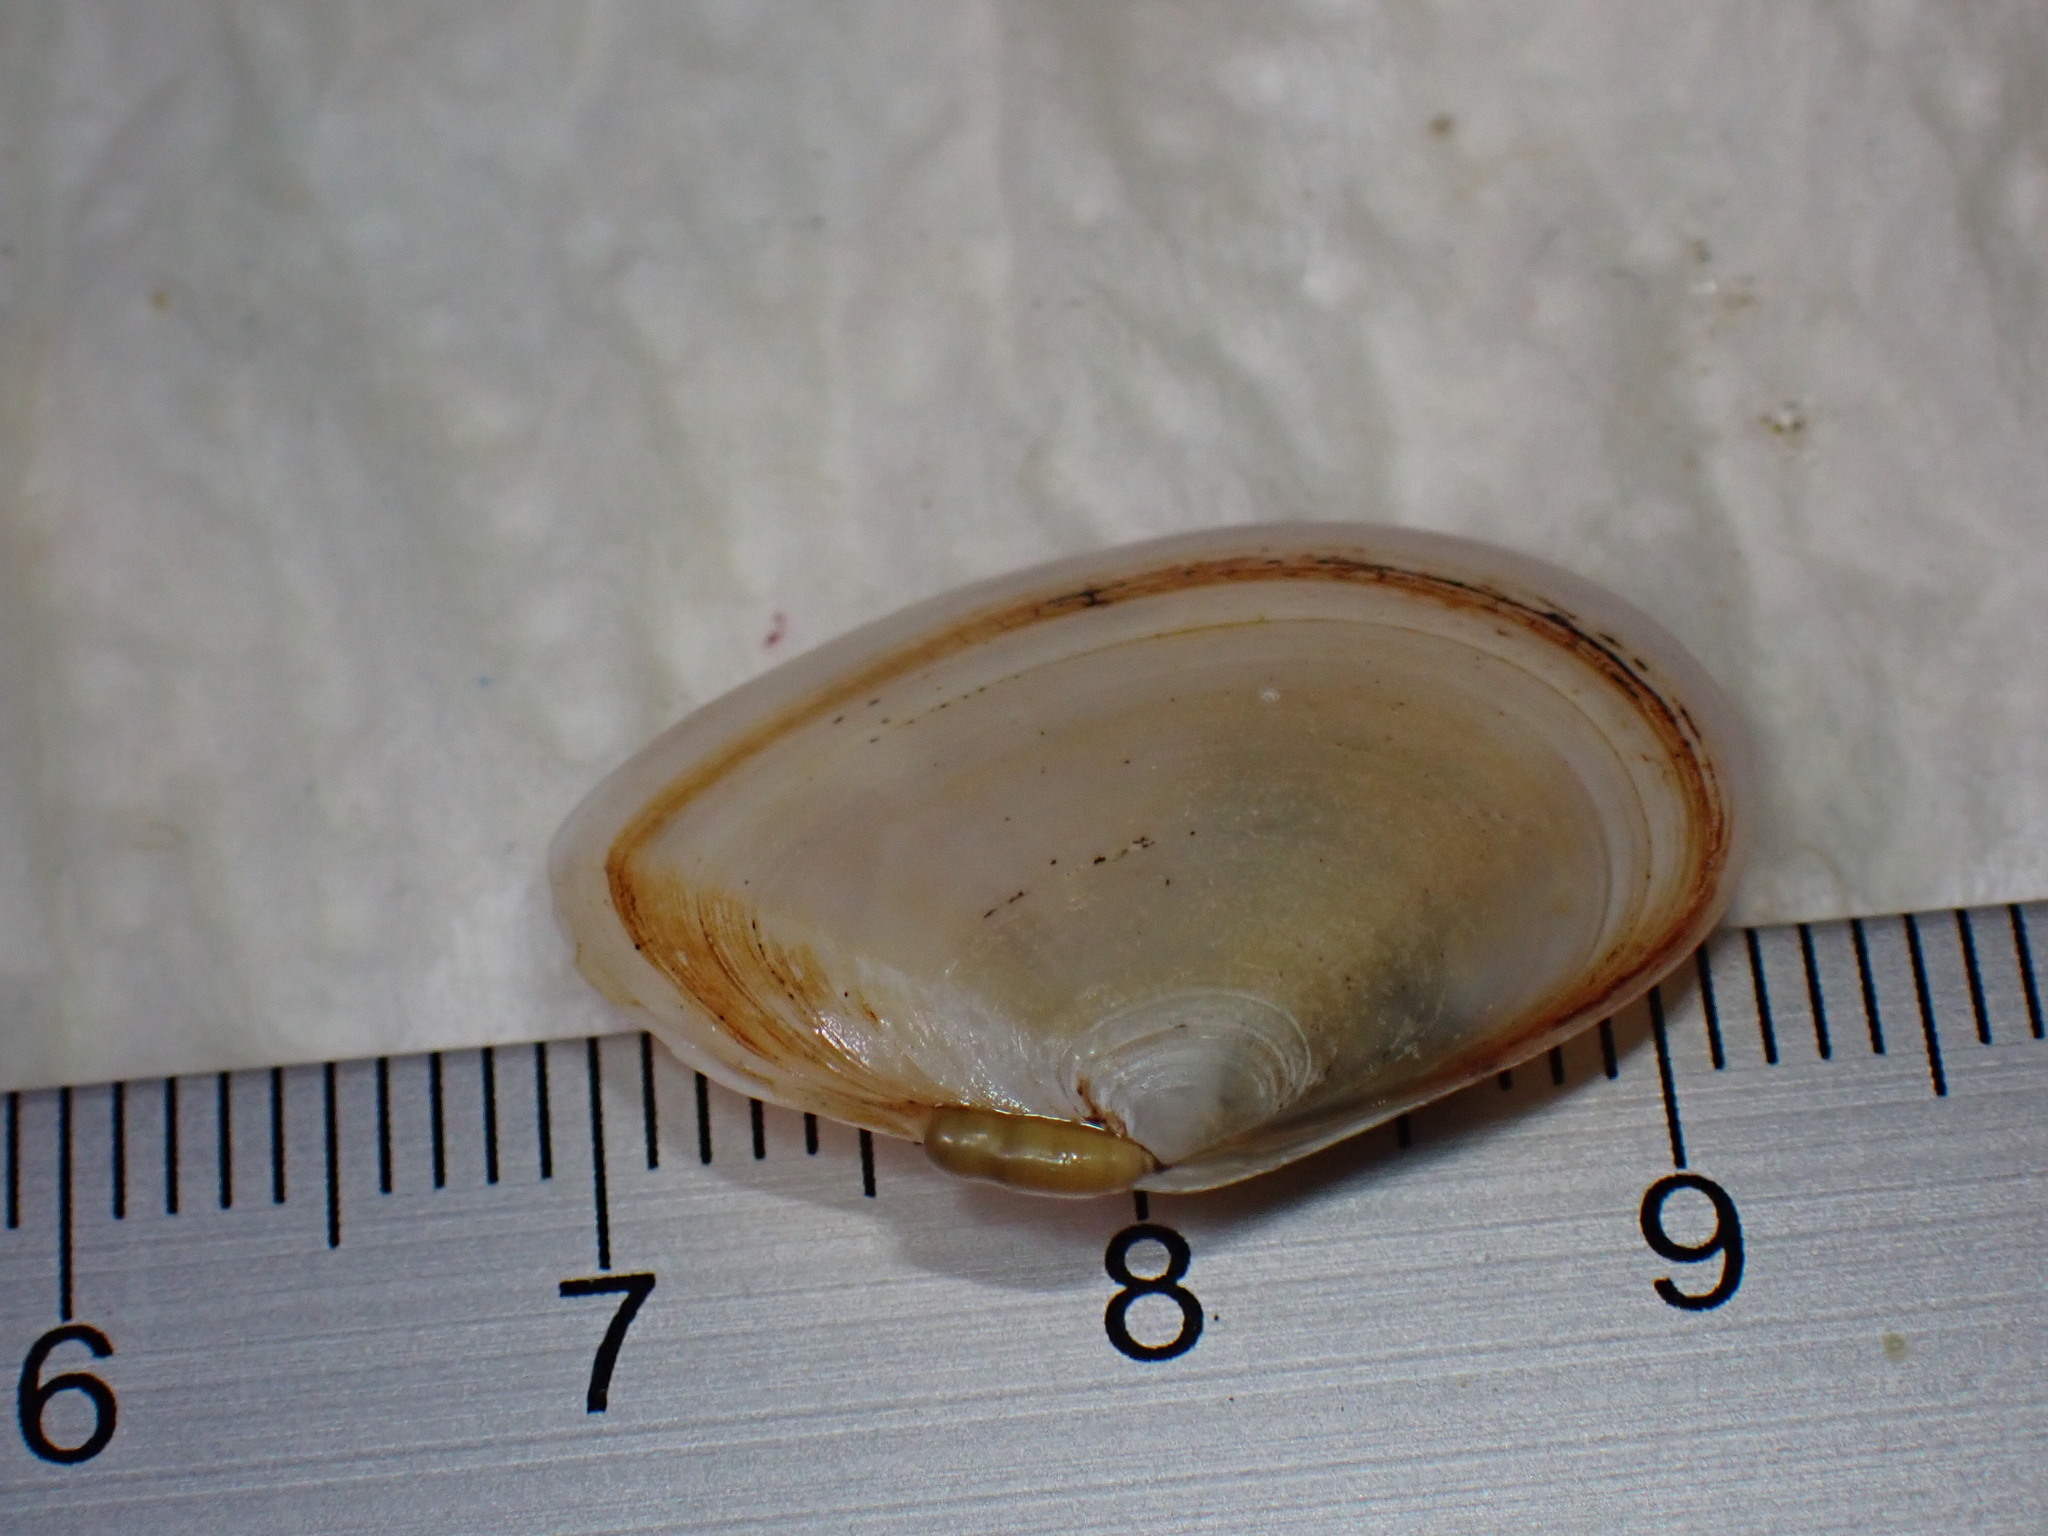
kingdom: Animalia
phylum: Mollusca
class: Bivalvia
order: Cardiida
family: Tellinidae
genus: Macomangulus
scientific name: Macomangulus tenuis
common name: Thin tellin
